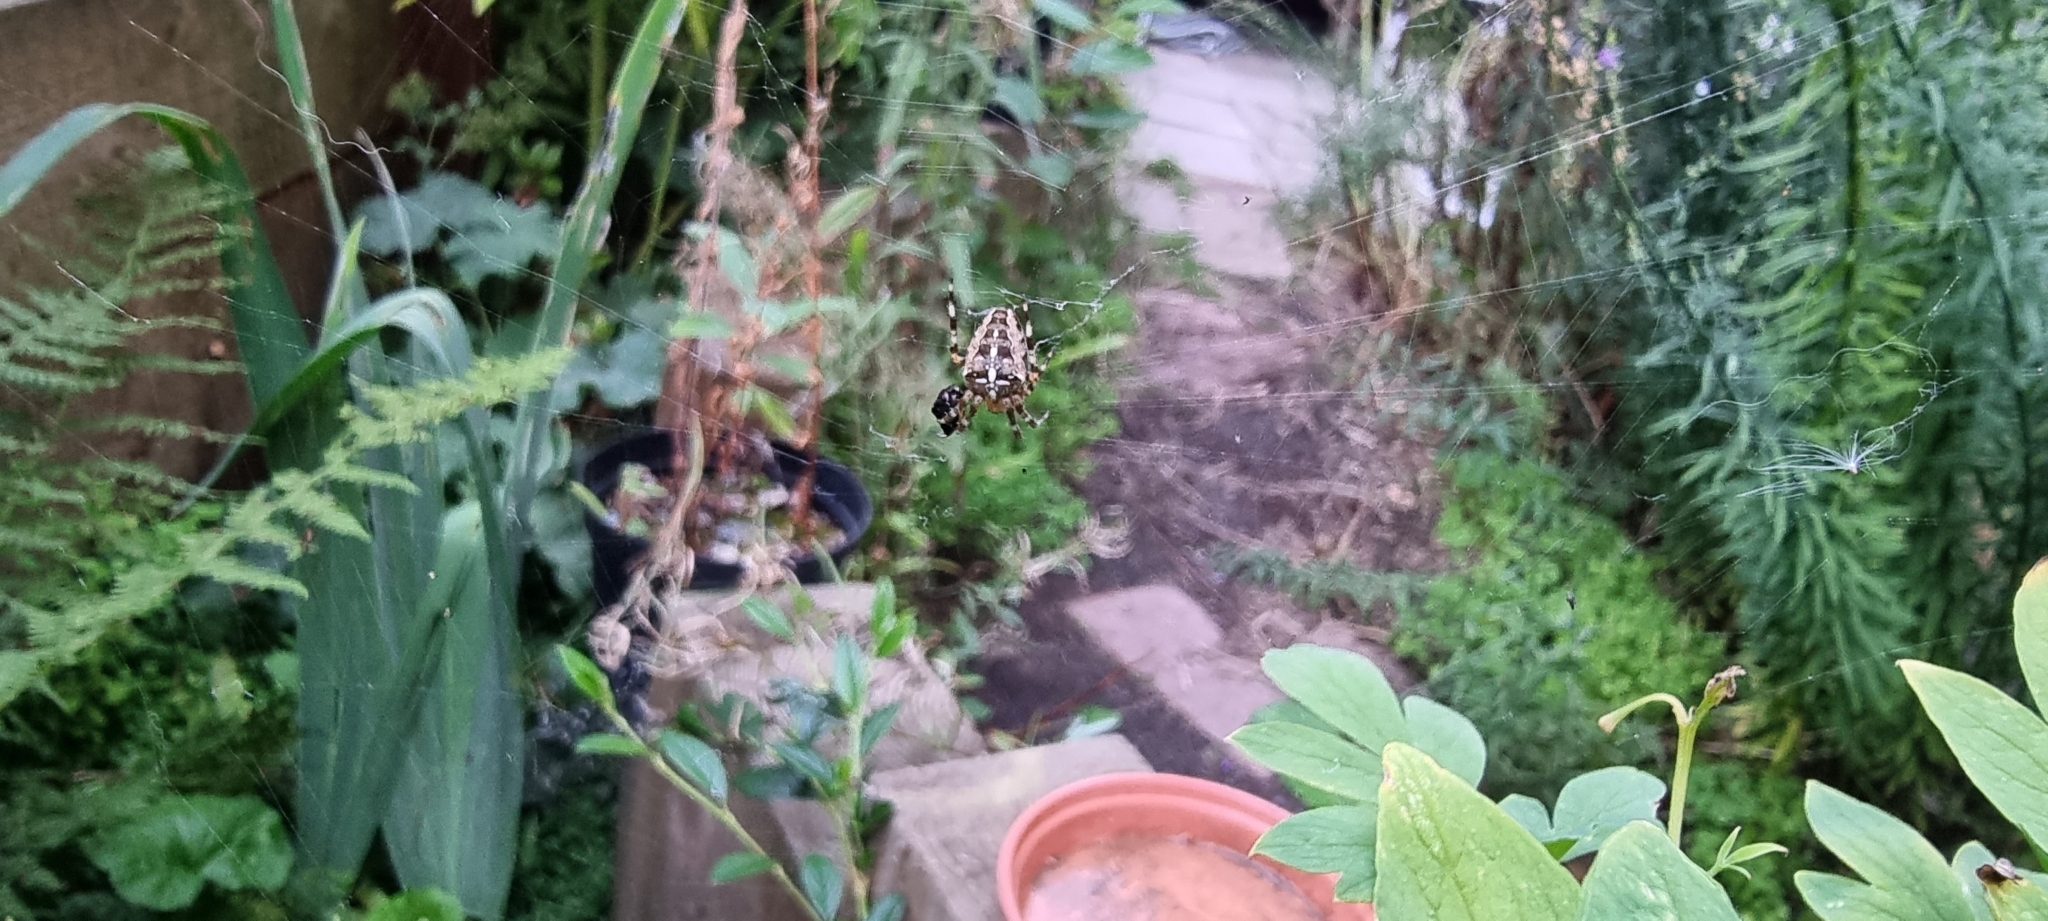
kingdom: Animalia
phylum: Arthropoda
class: Arachnida
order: Araneae
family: Araneidae
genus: Araneus
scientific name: Araneus diadematus
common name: Cross orbweaver
